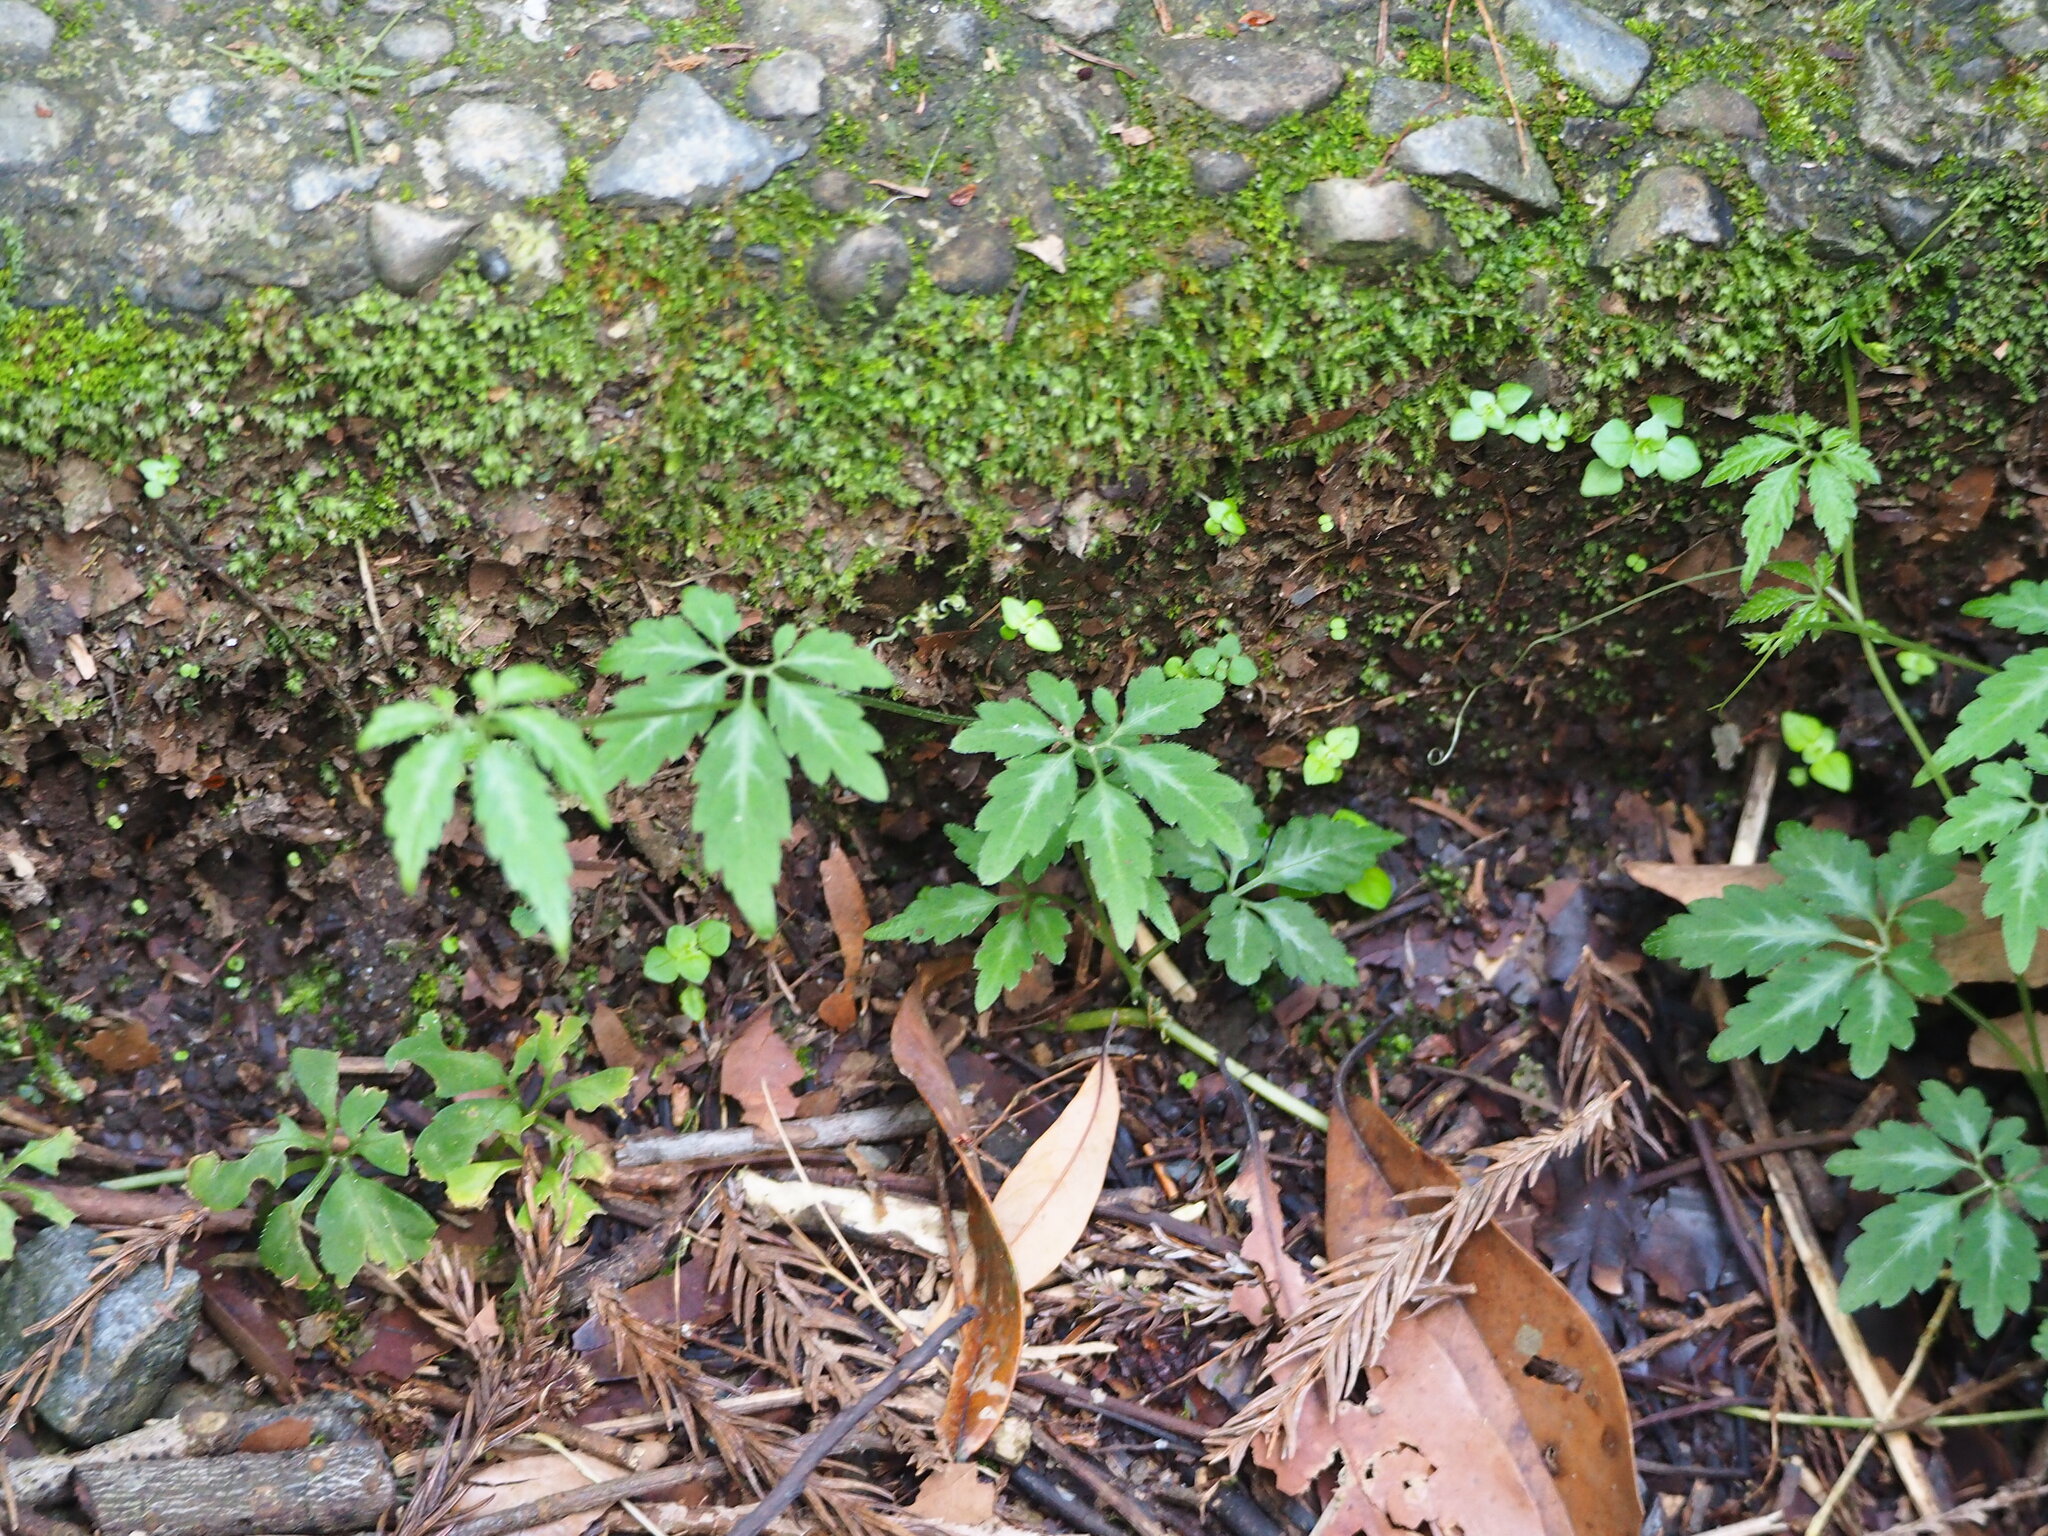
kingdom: Plantae
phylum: Tracheophyta
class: Magnoliopsida
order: Cucurbitales
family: Cucurbitaceae
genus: Gynostemma
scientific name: Gynostemma pentaphyllum
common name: Gynostemma
